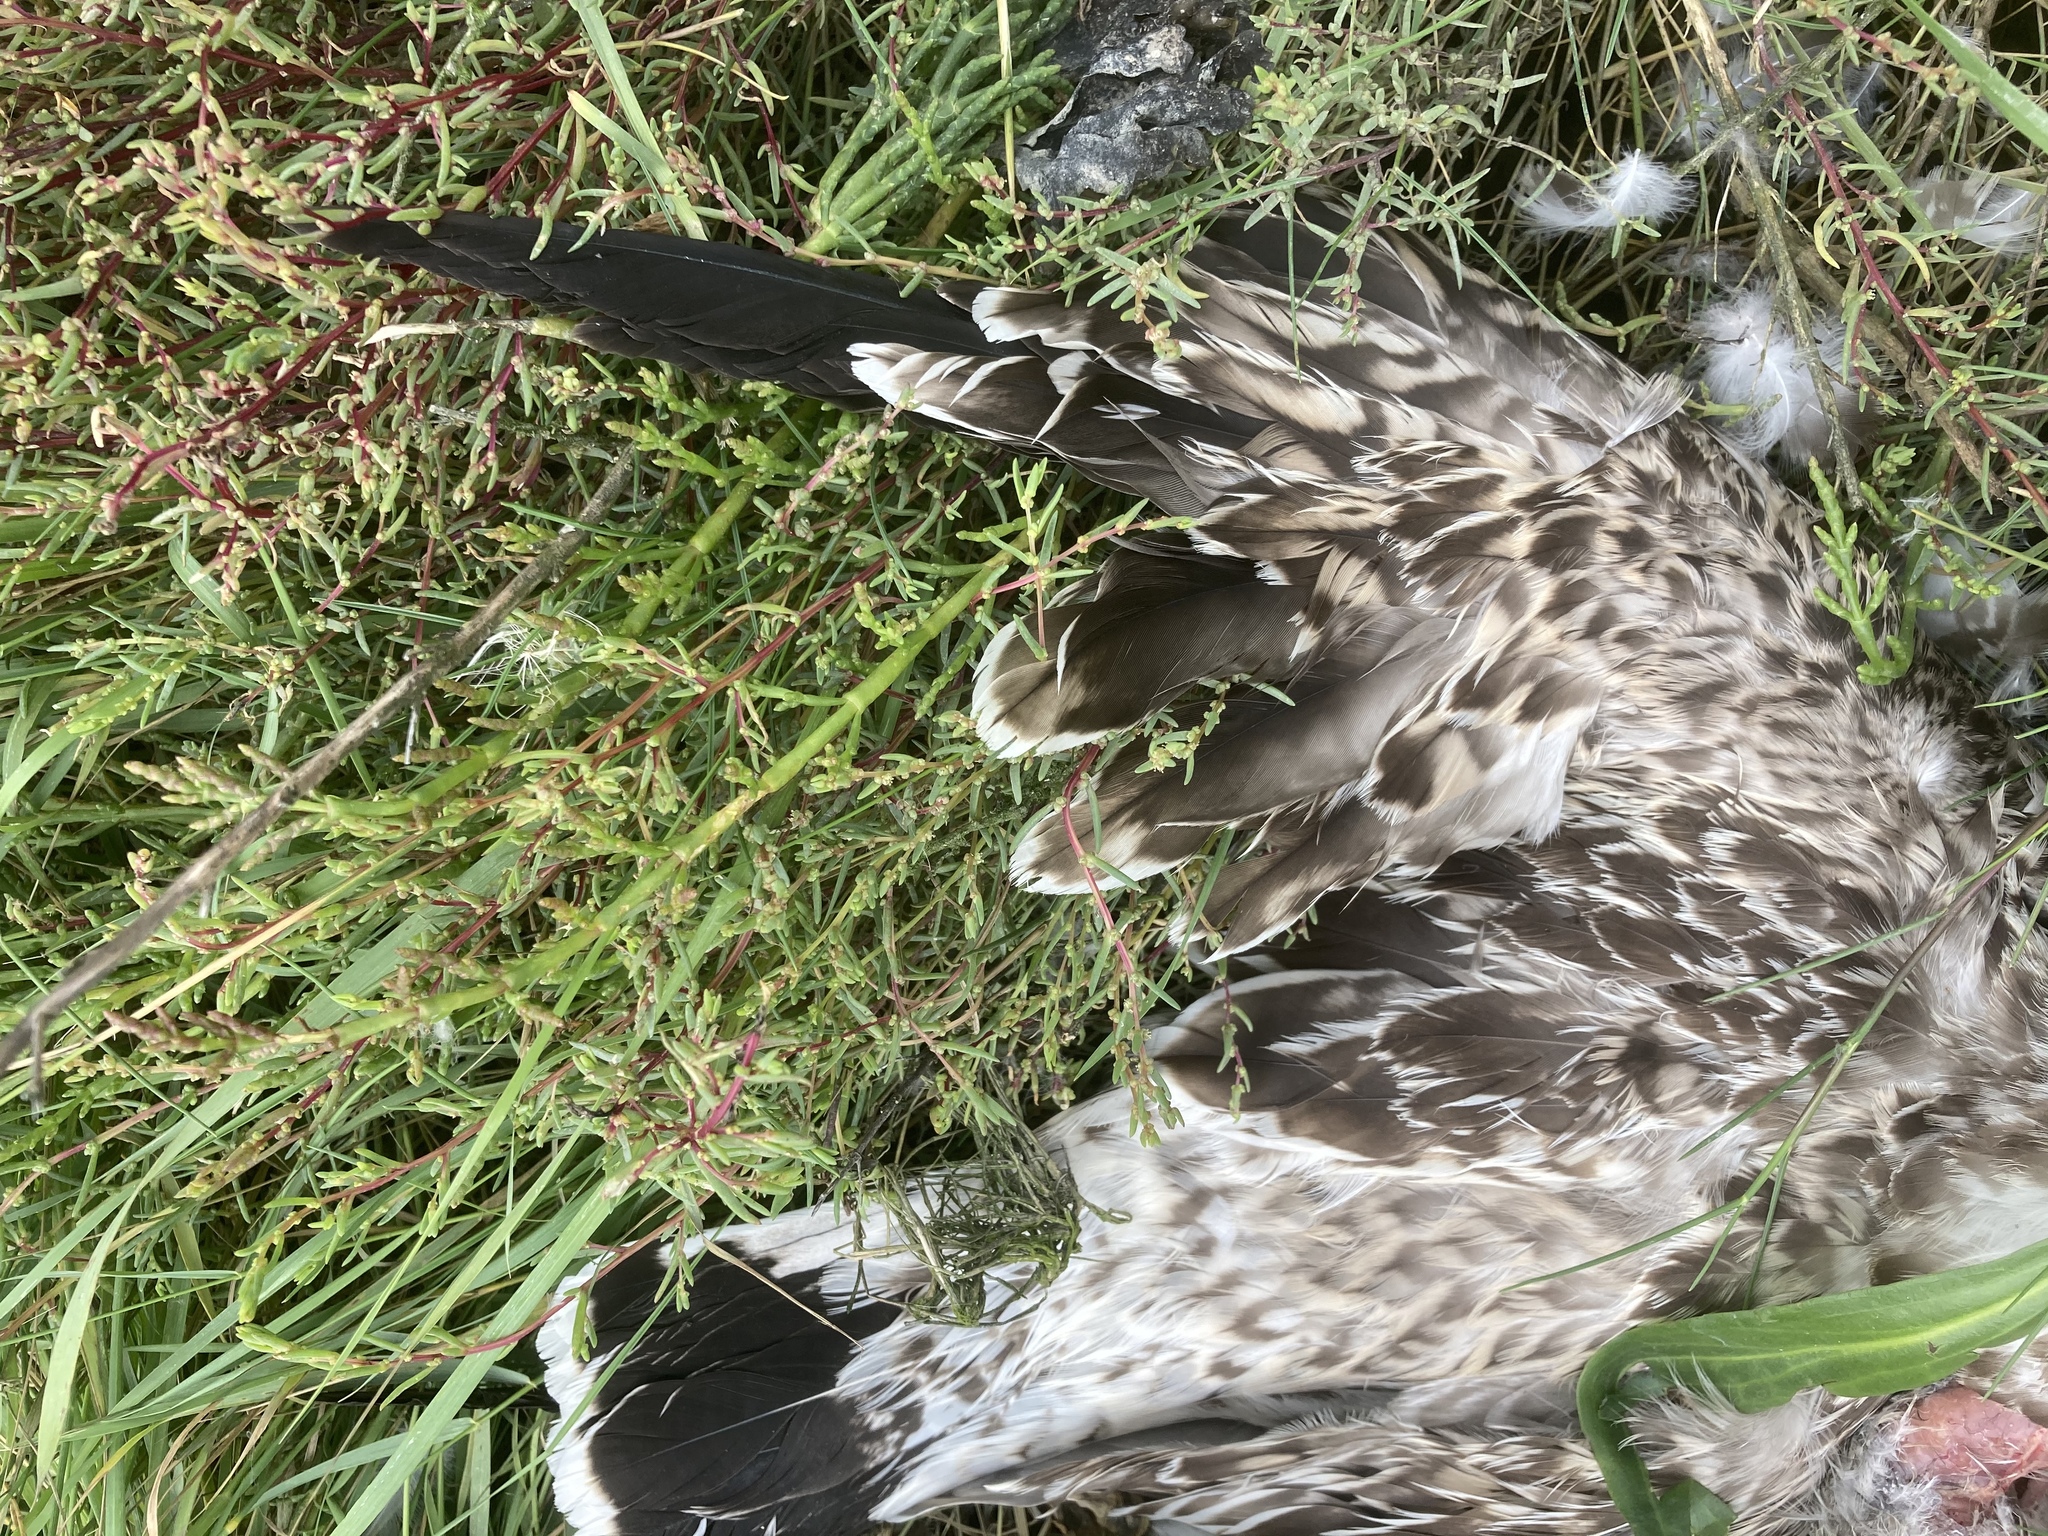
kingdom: Animalia
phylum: Chordata
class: Aves
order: Charadriiformes
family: Laridae
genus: Larus
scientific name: Larus fuscus
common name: Lesser black-backed gull
